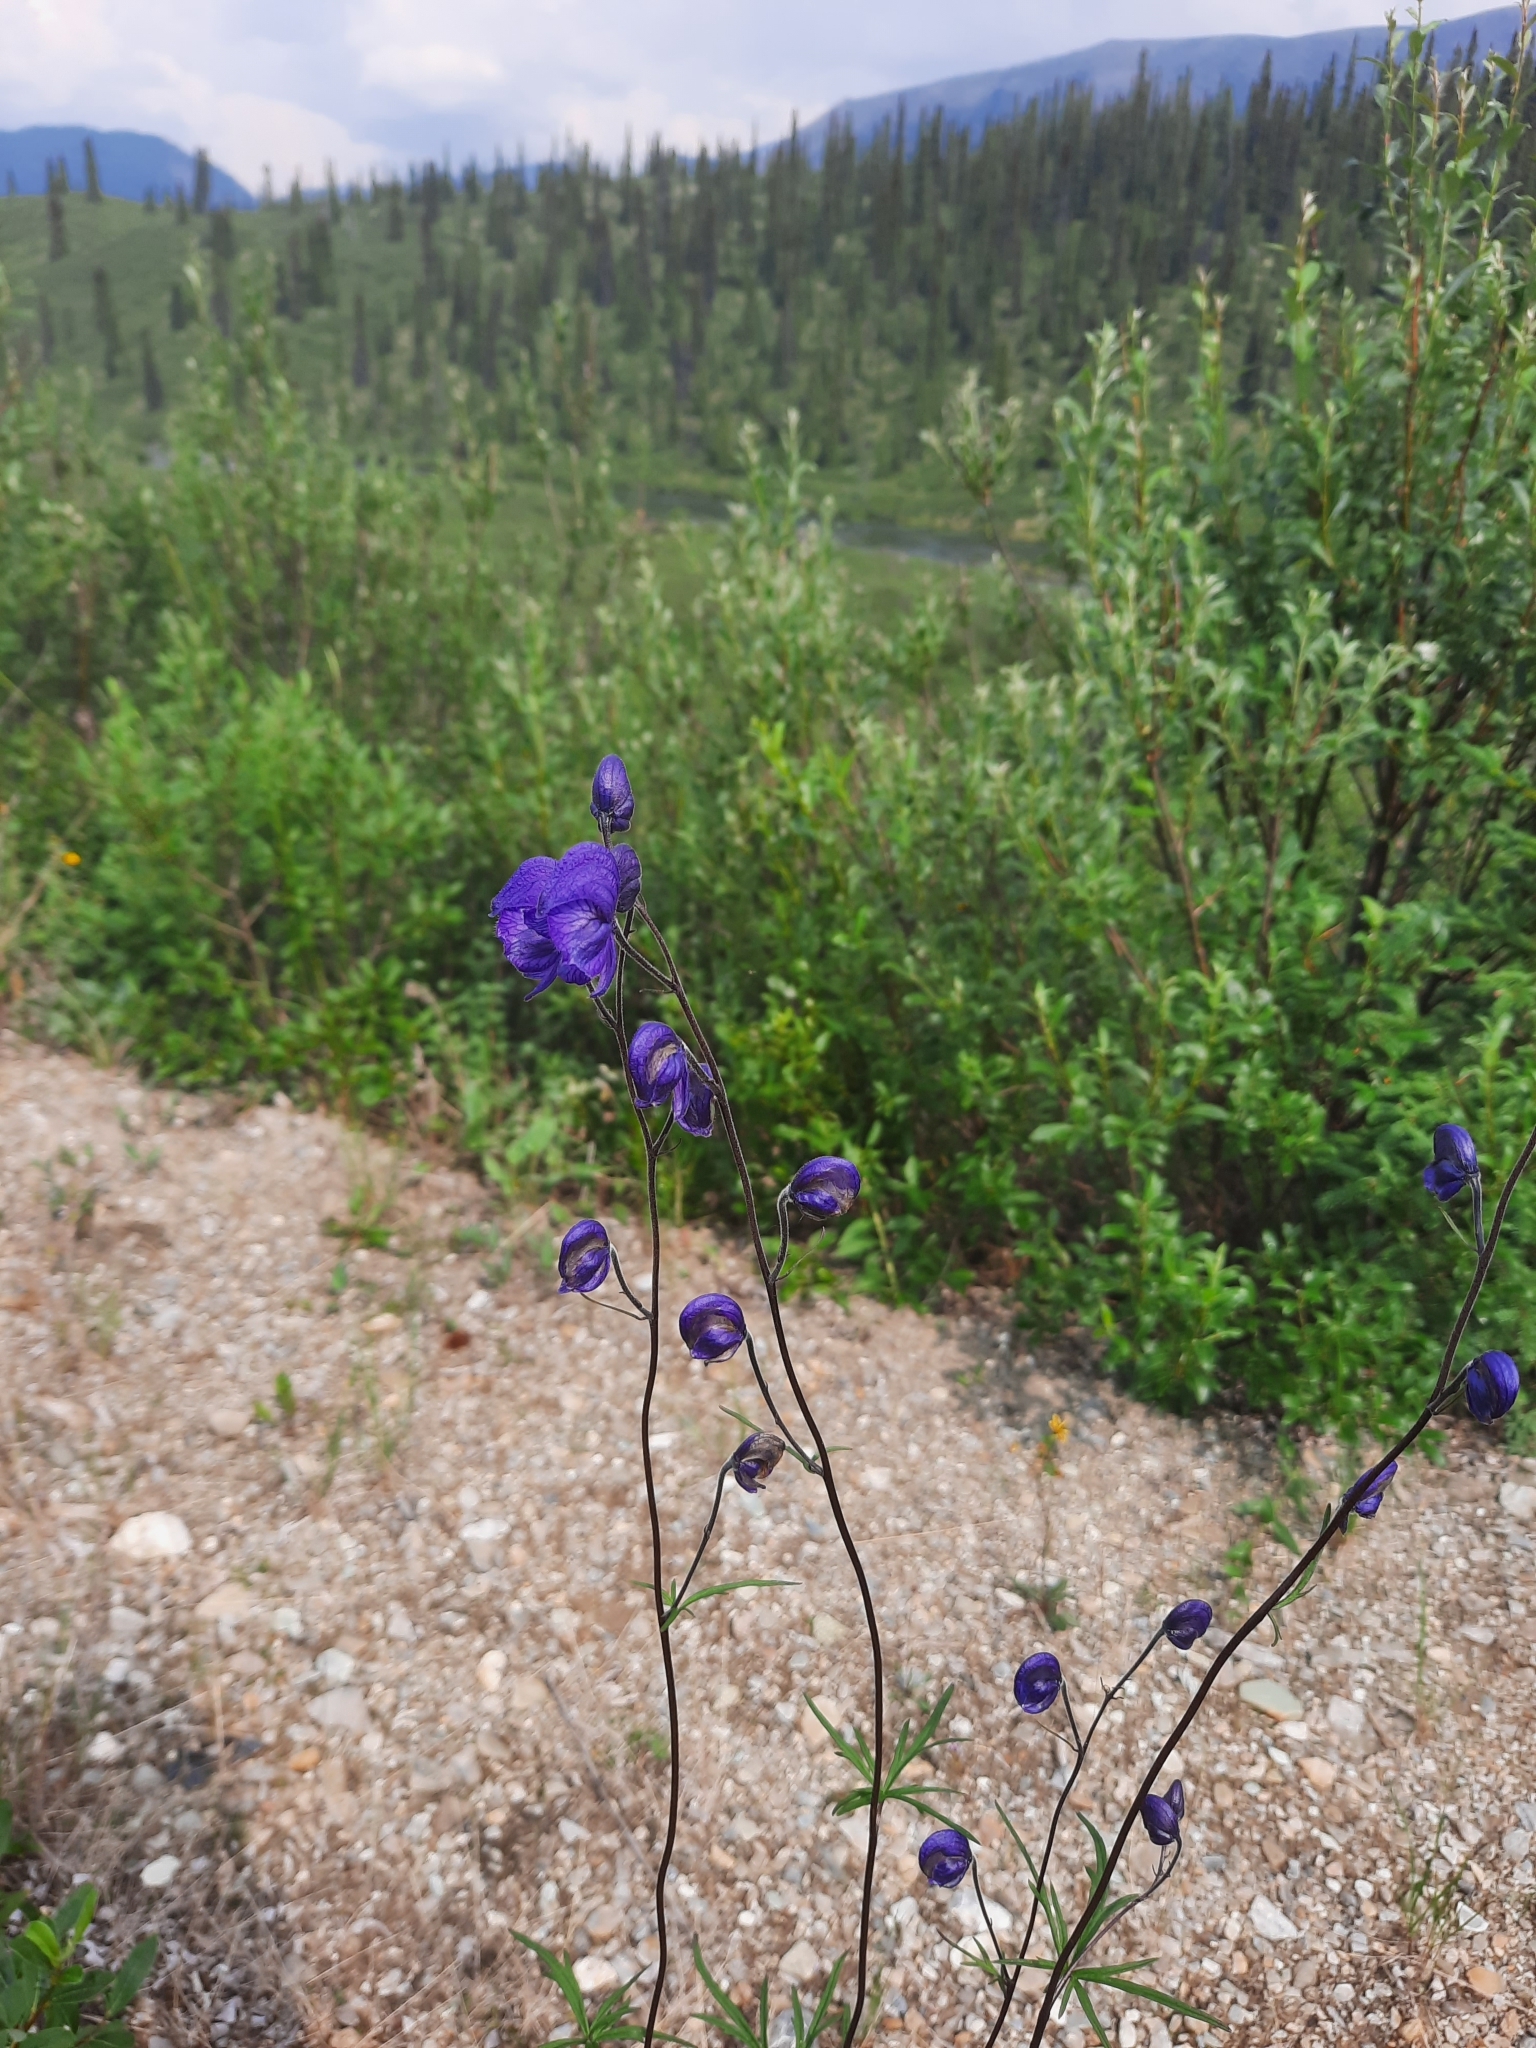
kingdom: Plantae
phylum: Tracheophyta
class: Magnoliopsida
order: Ranunculales
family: Ranunculaceae
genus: Aconitum
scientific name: Aconitum delphiniifolium
